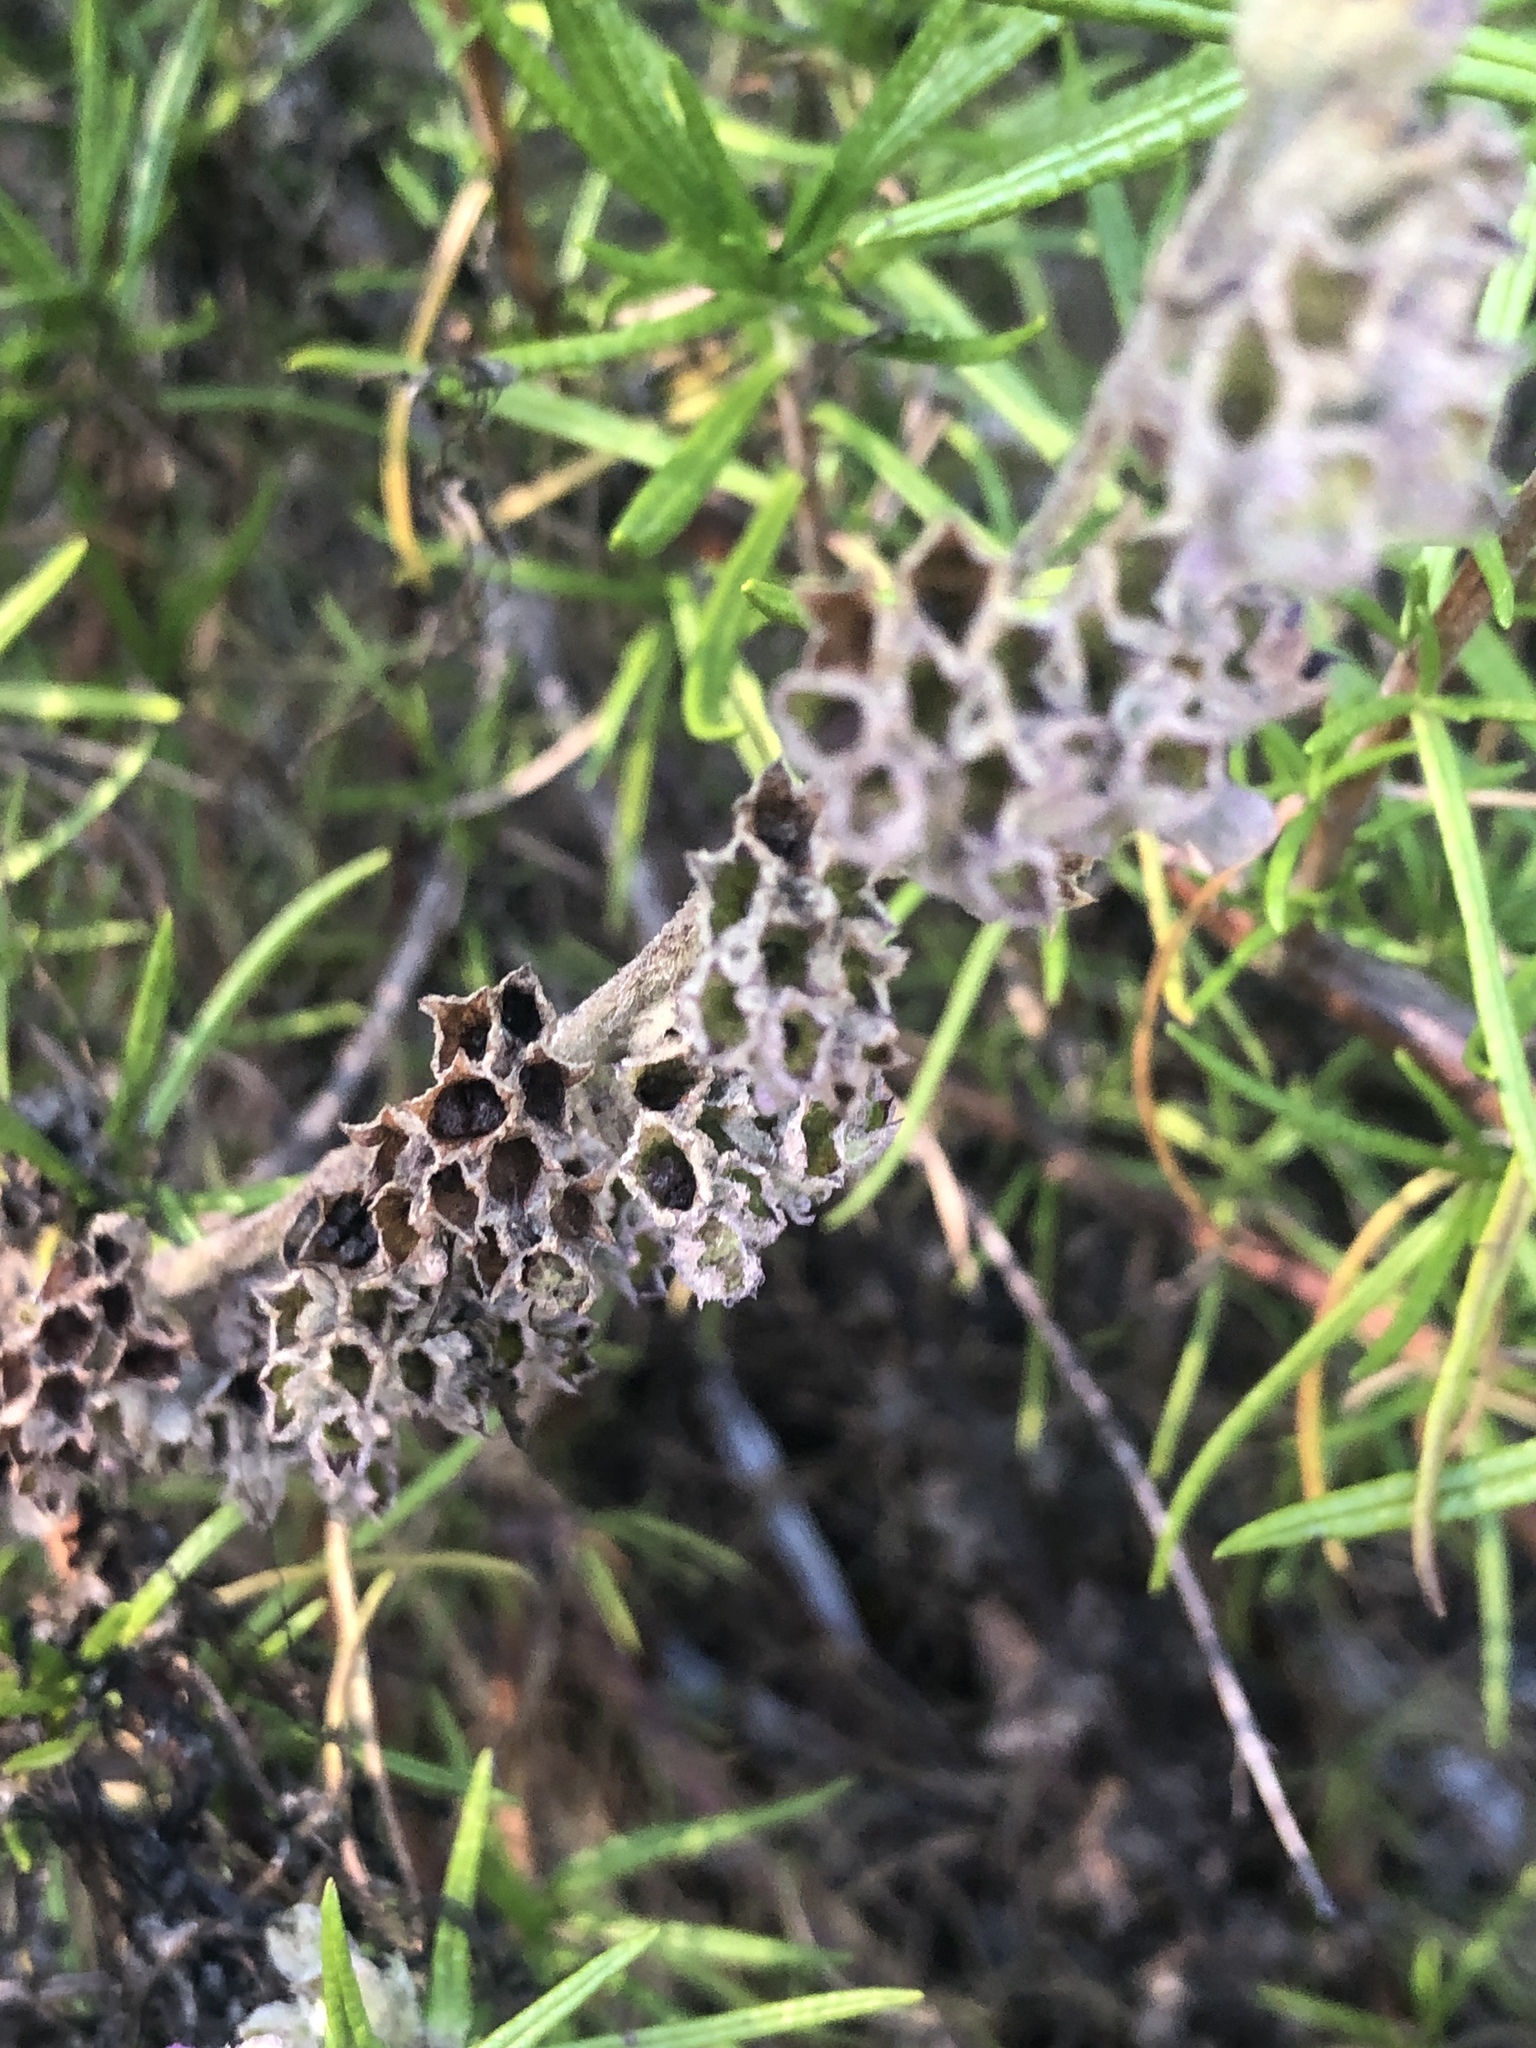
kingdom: Plantae
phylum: Tracheophyta
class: Magnoliopsida
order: Lamiales
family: Lamiaceae
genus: Trichostema
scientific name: Trichostema lanatum
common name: Woolly bluecurls
